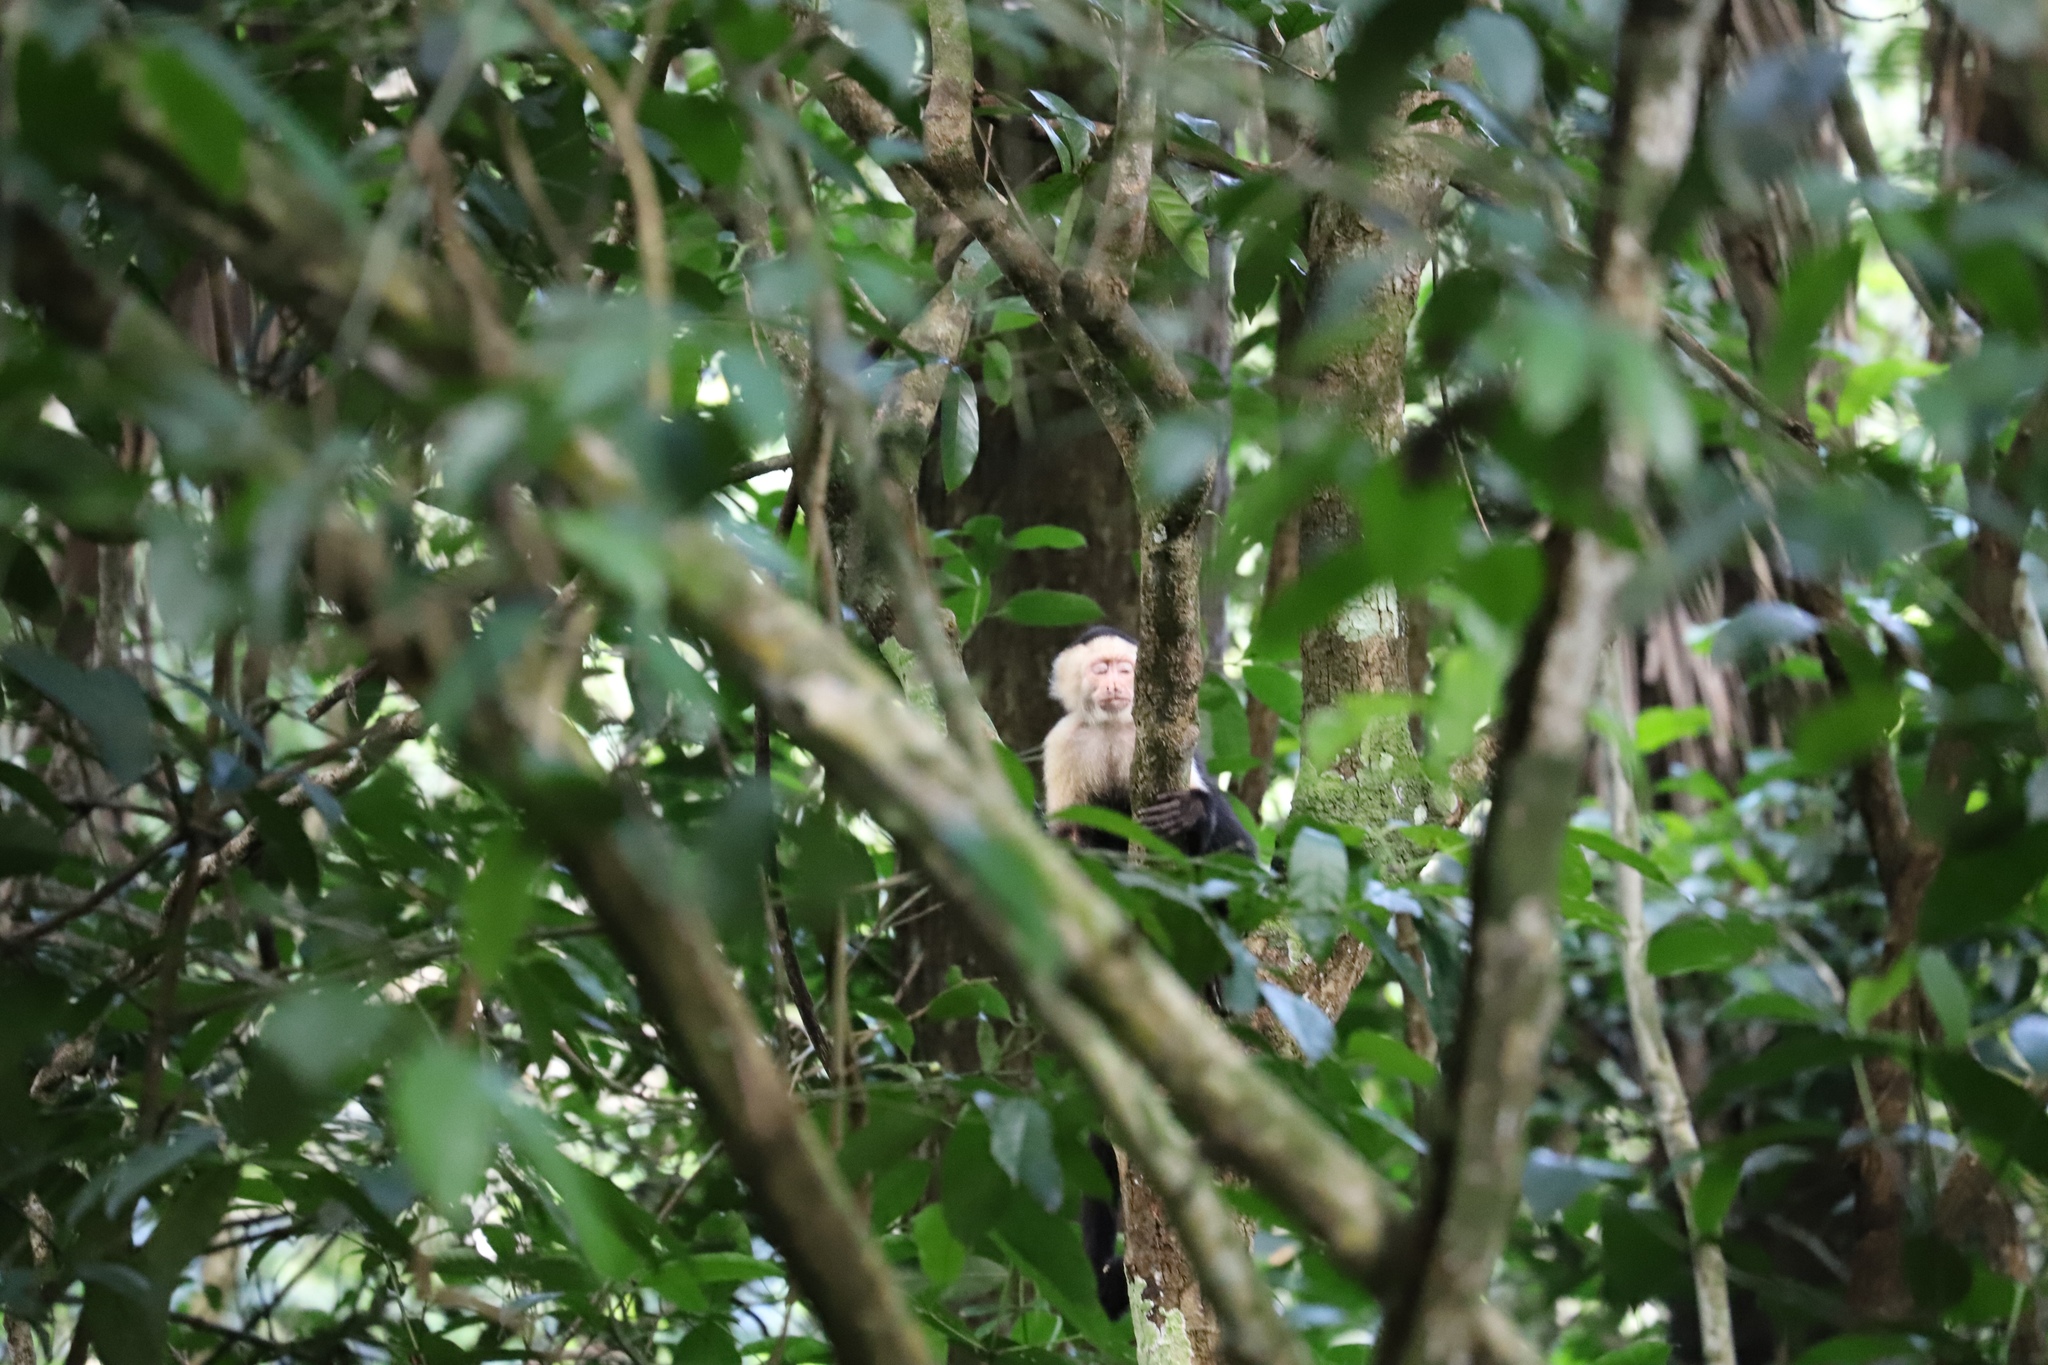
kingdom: Animalia
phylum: Chordata
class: Mammalia
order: Primates
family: Cebidae
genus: Cebus
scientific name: Cebus imitator
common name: Panamanian white-faced capuchin
